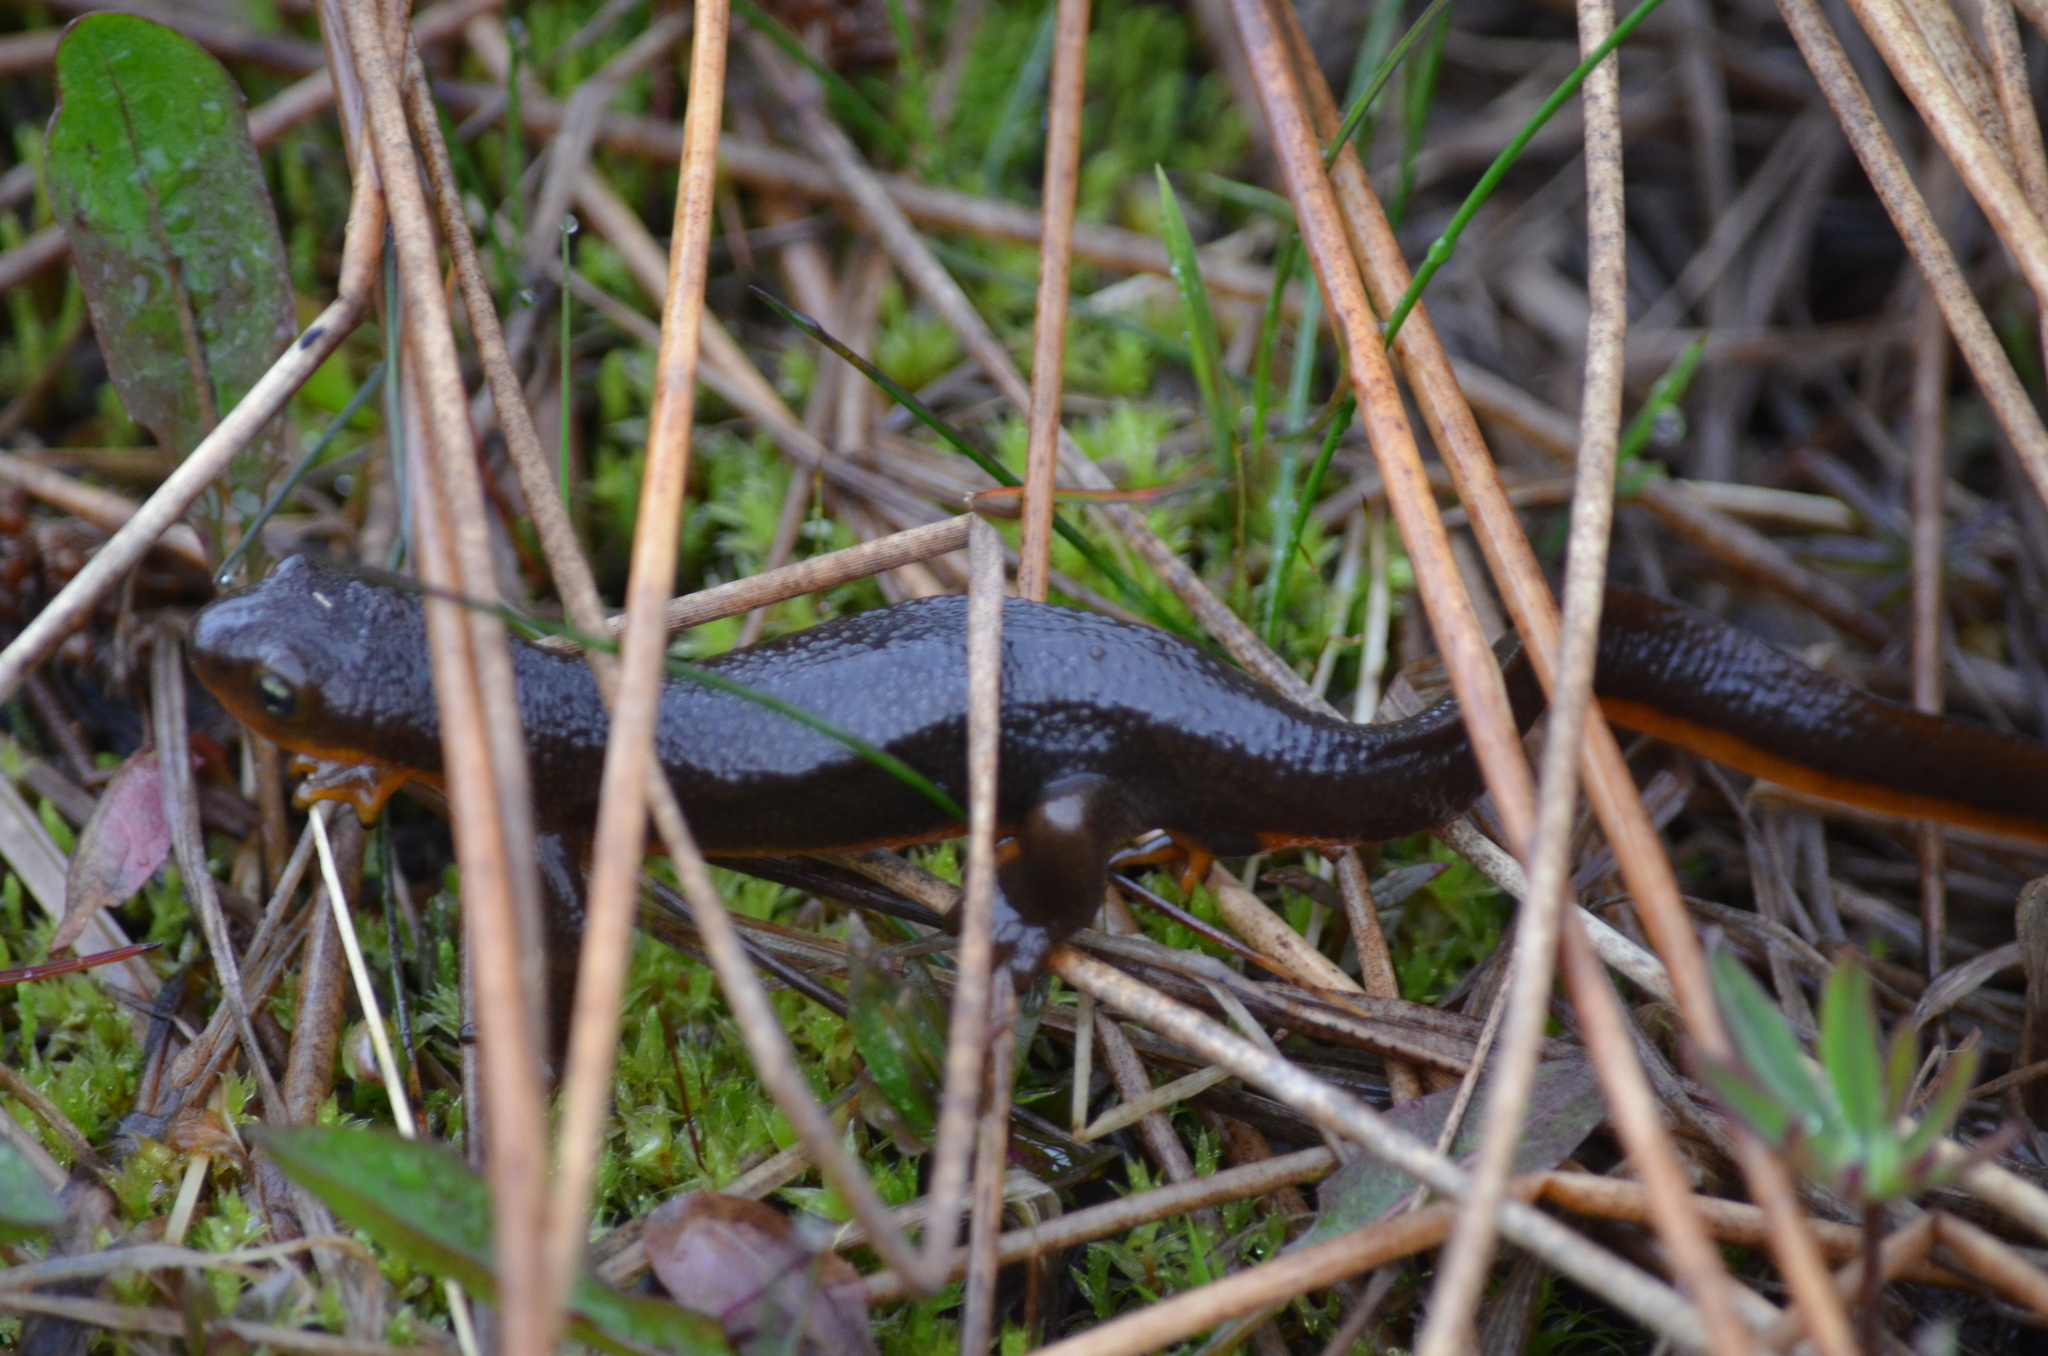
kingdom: Animalia
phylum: Chordata
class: Amphibia
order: Caudata
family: Salamandridae
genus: Taricha
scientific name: Taricha granulosa
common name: Roughskin newt
